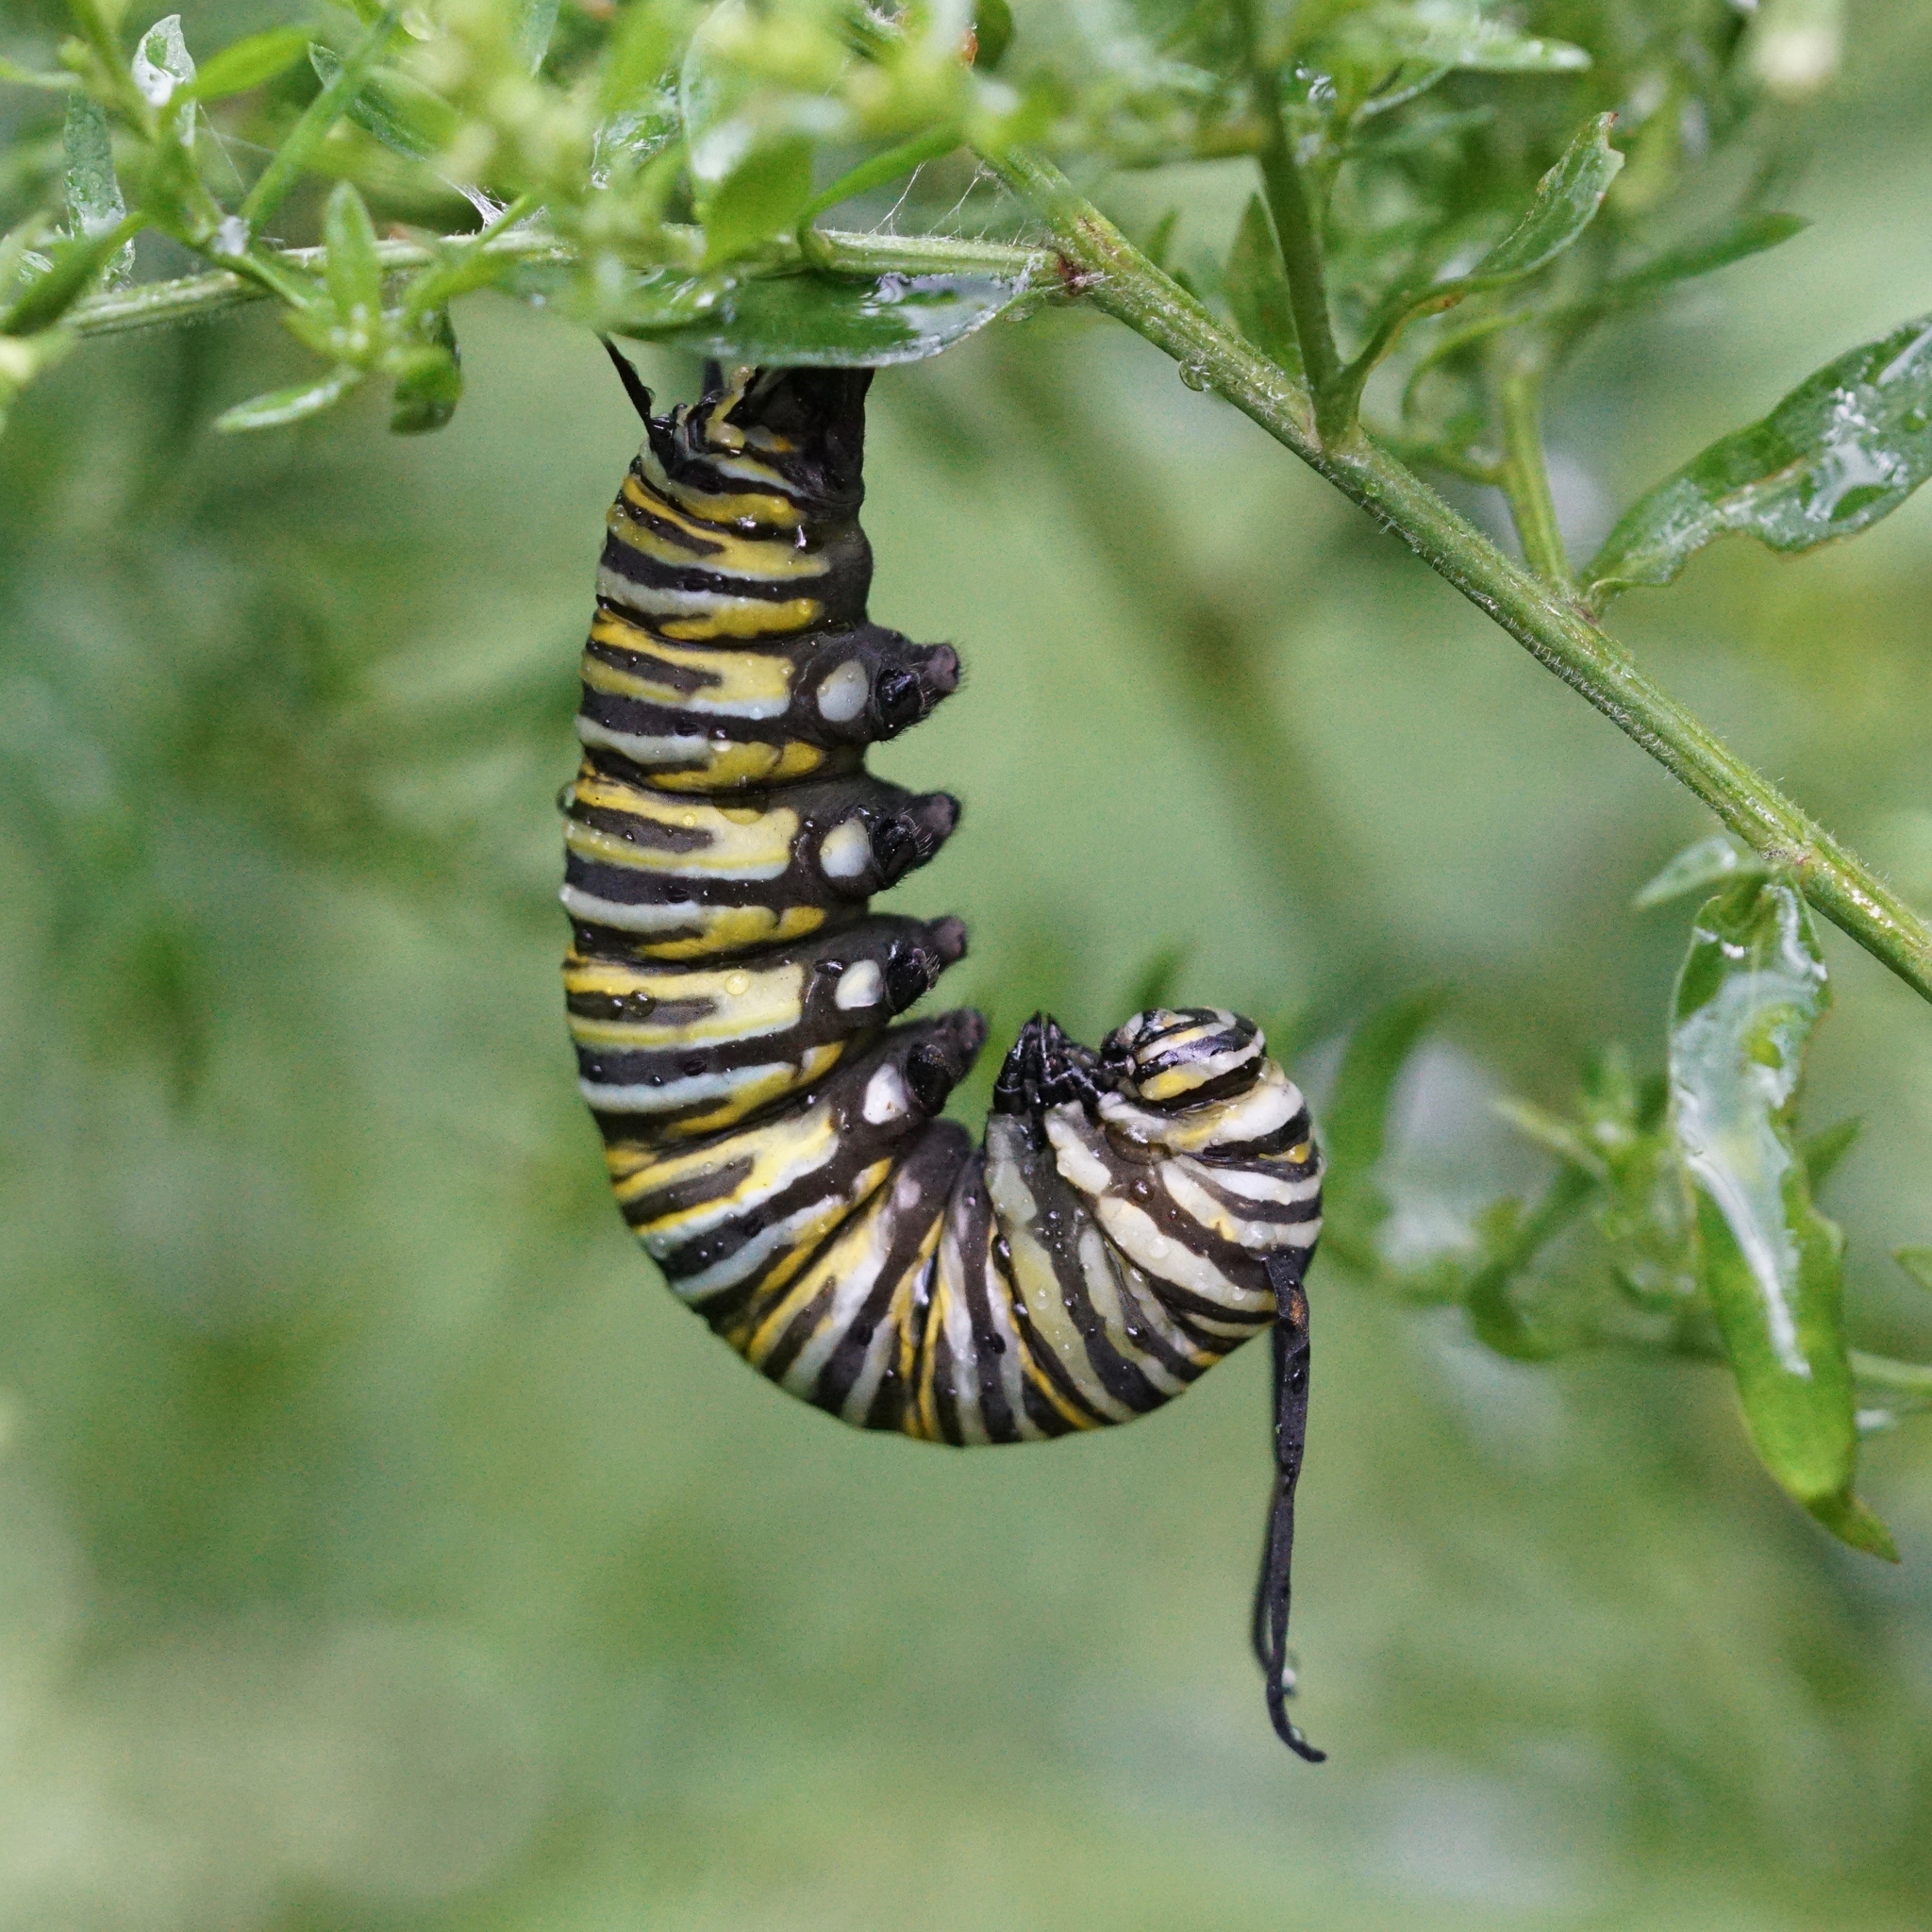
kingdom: Animalia
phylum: Arthropoda
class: Insecta
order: Lepidoptera
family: Nymphalidae
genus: Danaus
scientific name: Danaus plexippus
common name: Monarch
